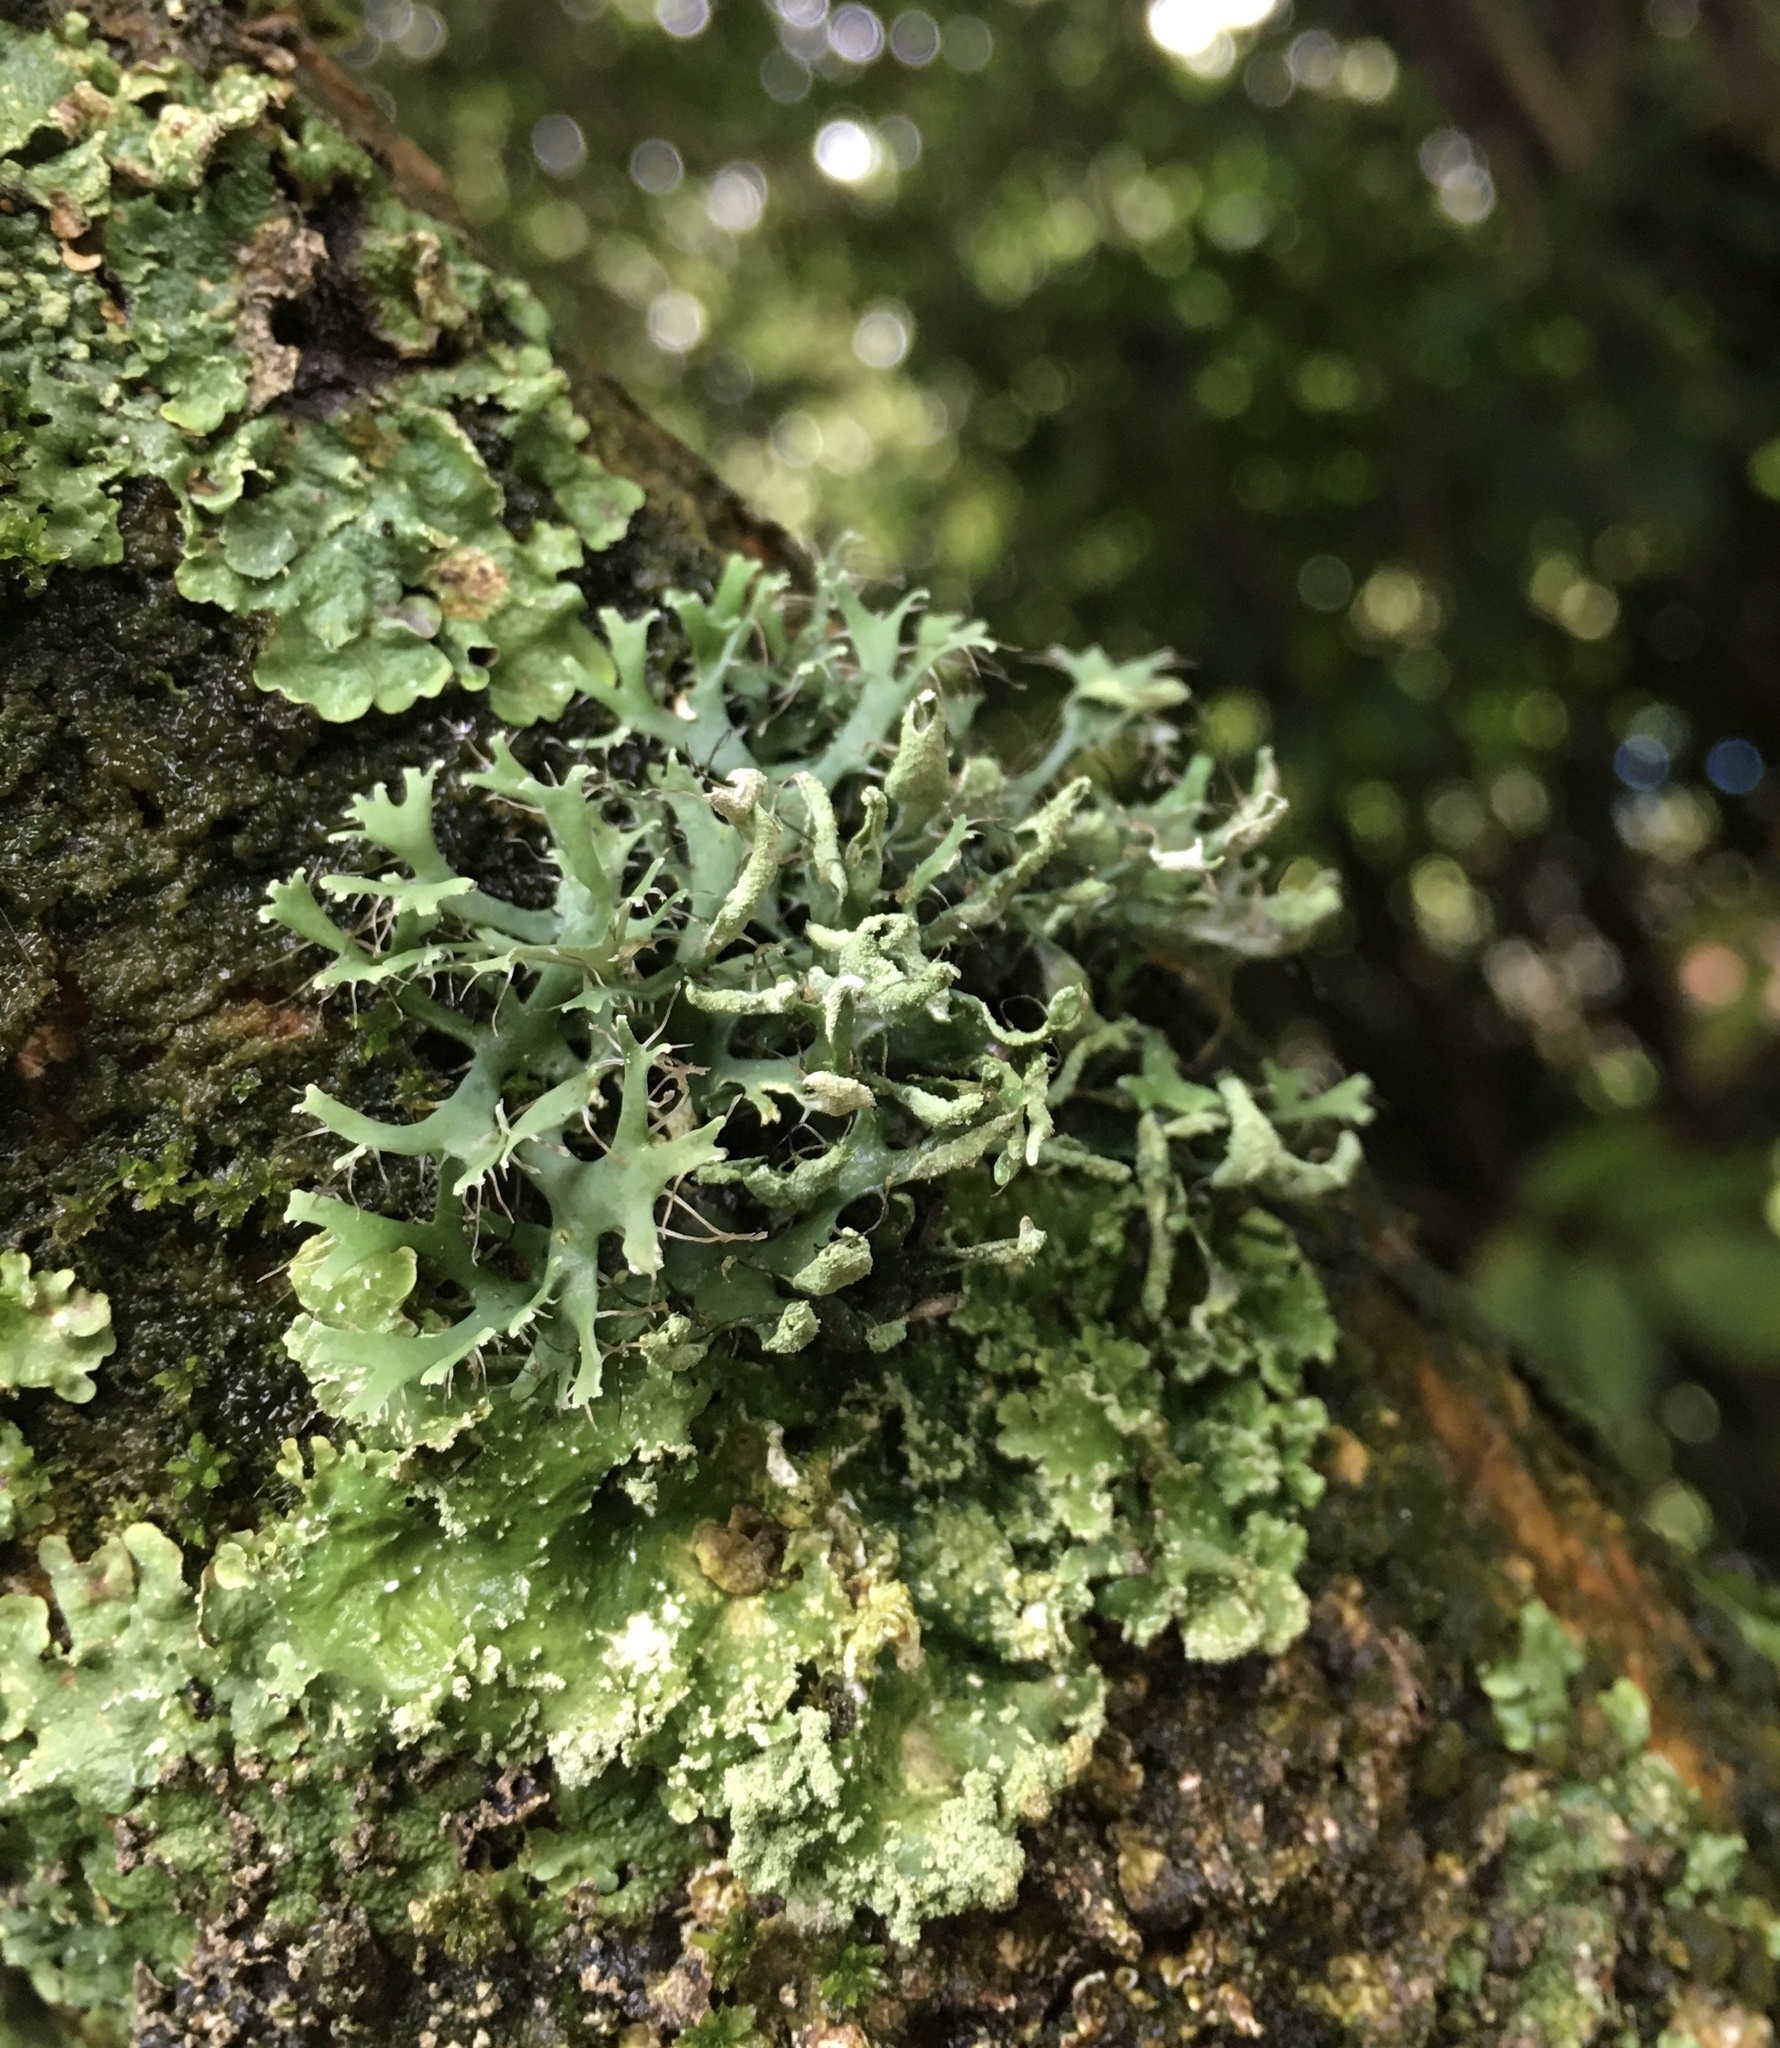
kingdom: Fungi
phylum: Ascomycota
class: Lecanoromycetes
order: Caliciales
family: Physciaceae
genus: Leucodermia
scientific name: Leucodermia leucomelos
